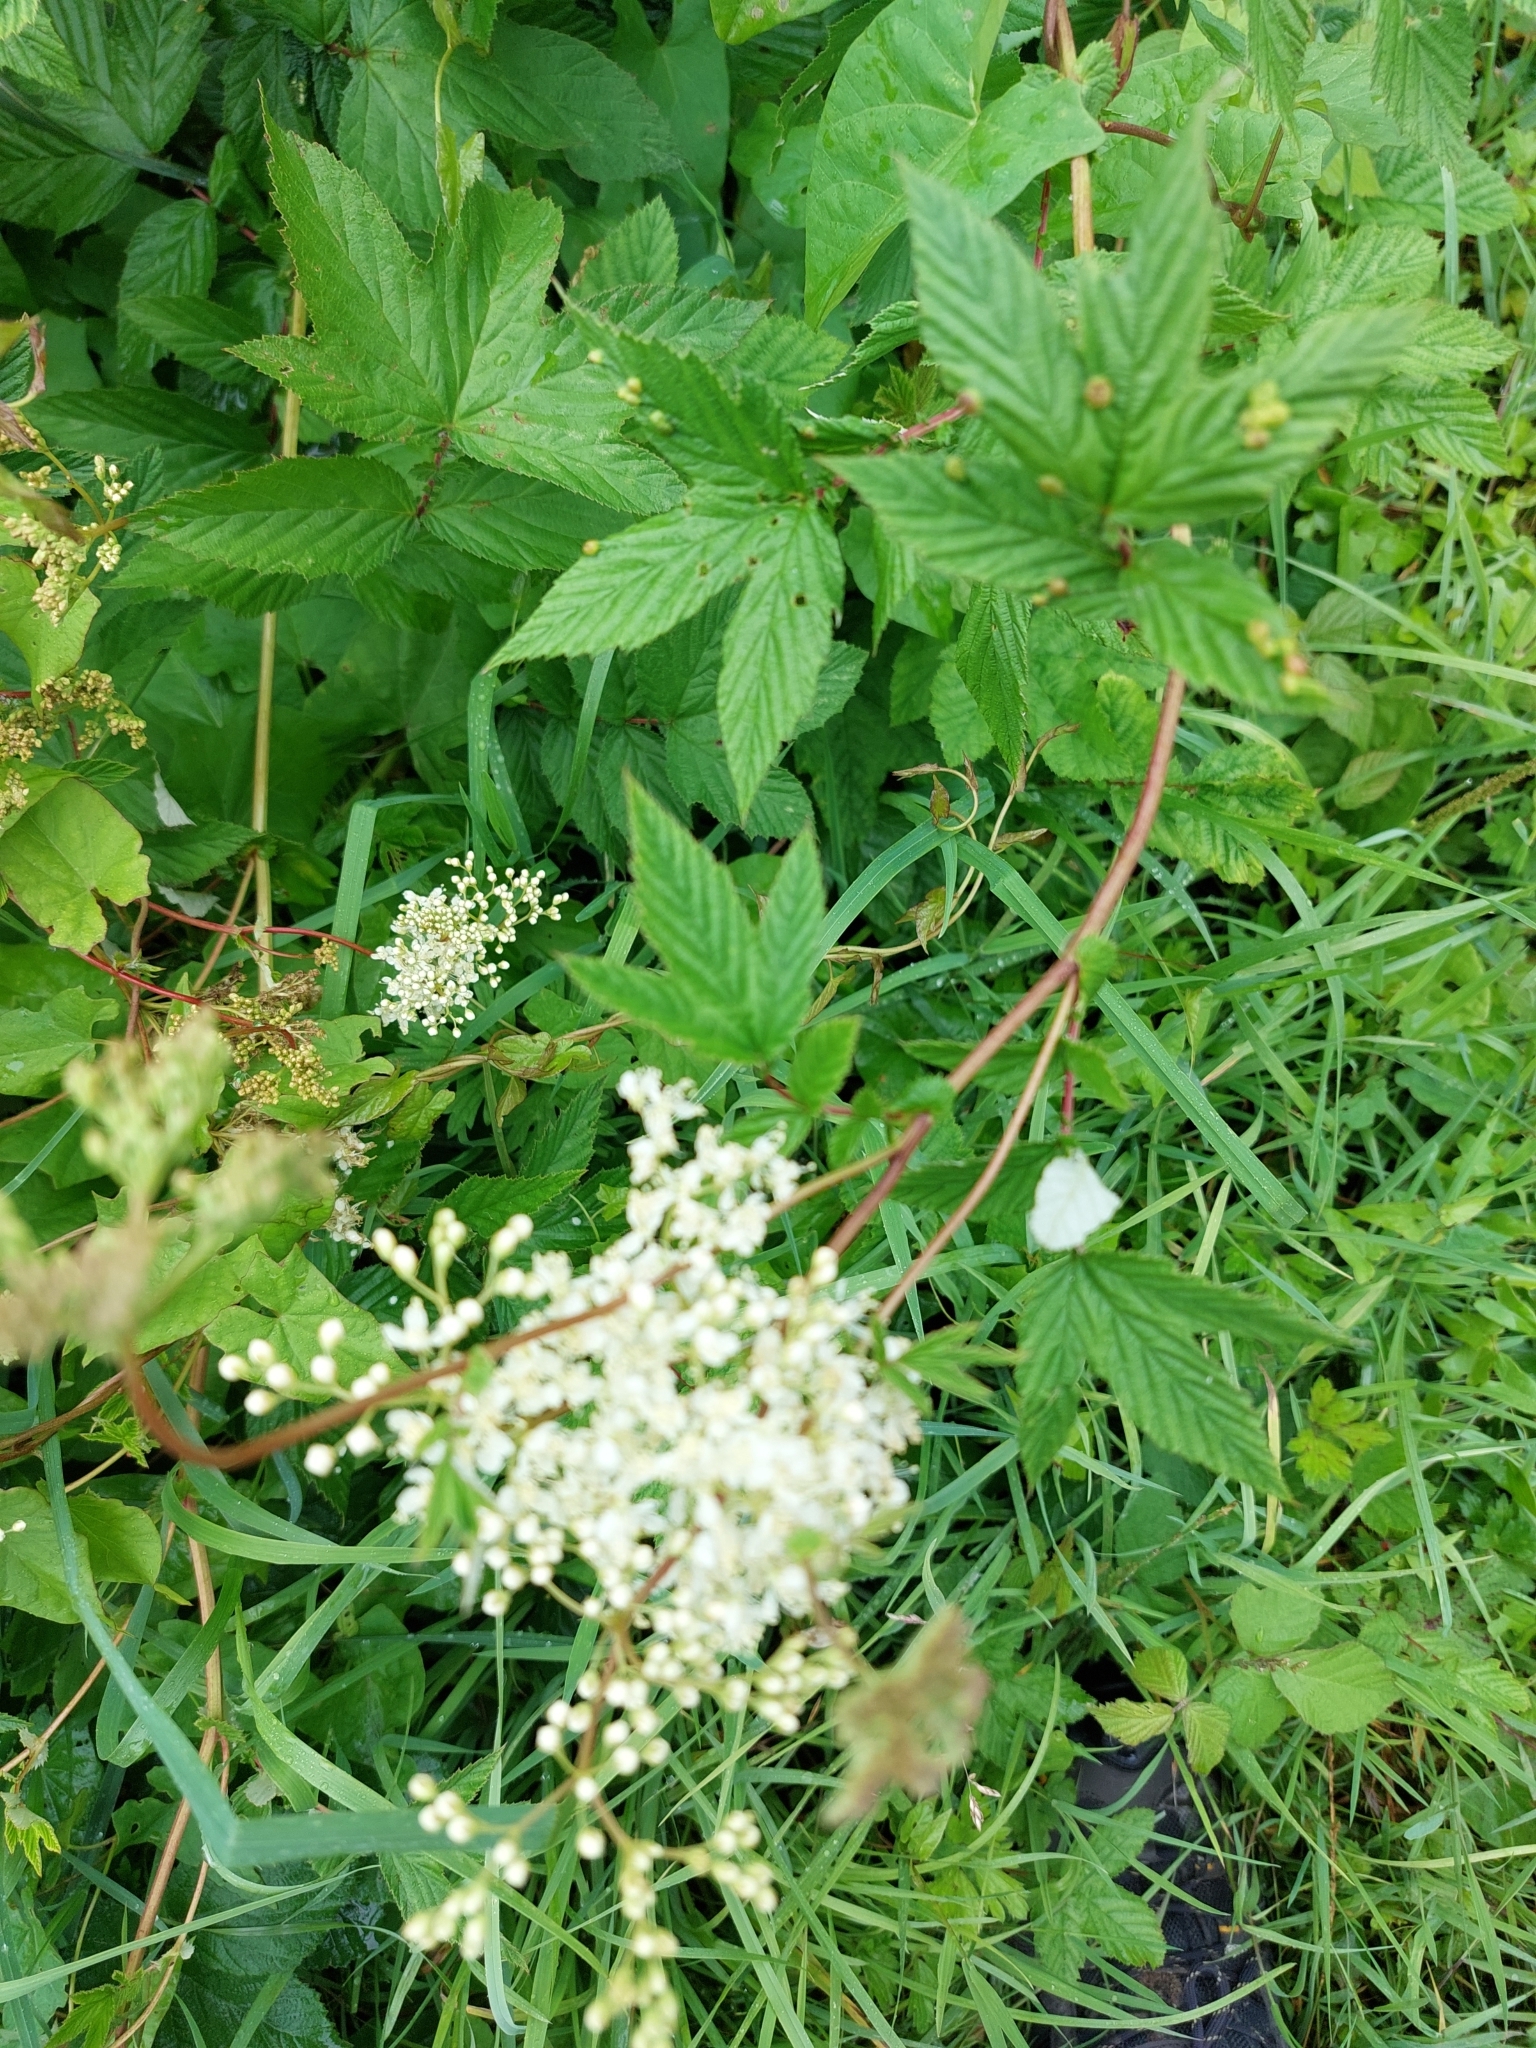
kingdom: Plantae
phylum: Tracheophyta
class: Magnoliopsida
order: Rosales
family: Rosaceae
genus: Filipendula
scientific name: Filipendula ulmaria
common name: Meadowsweet
